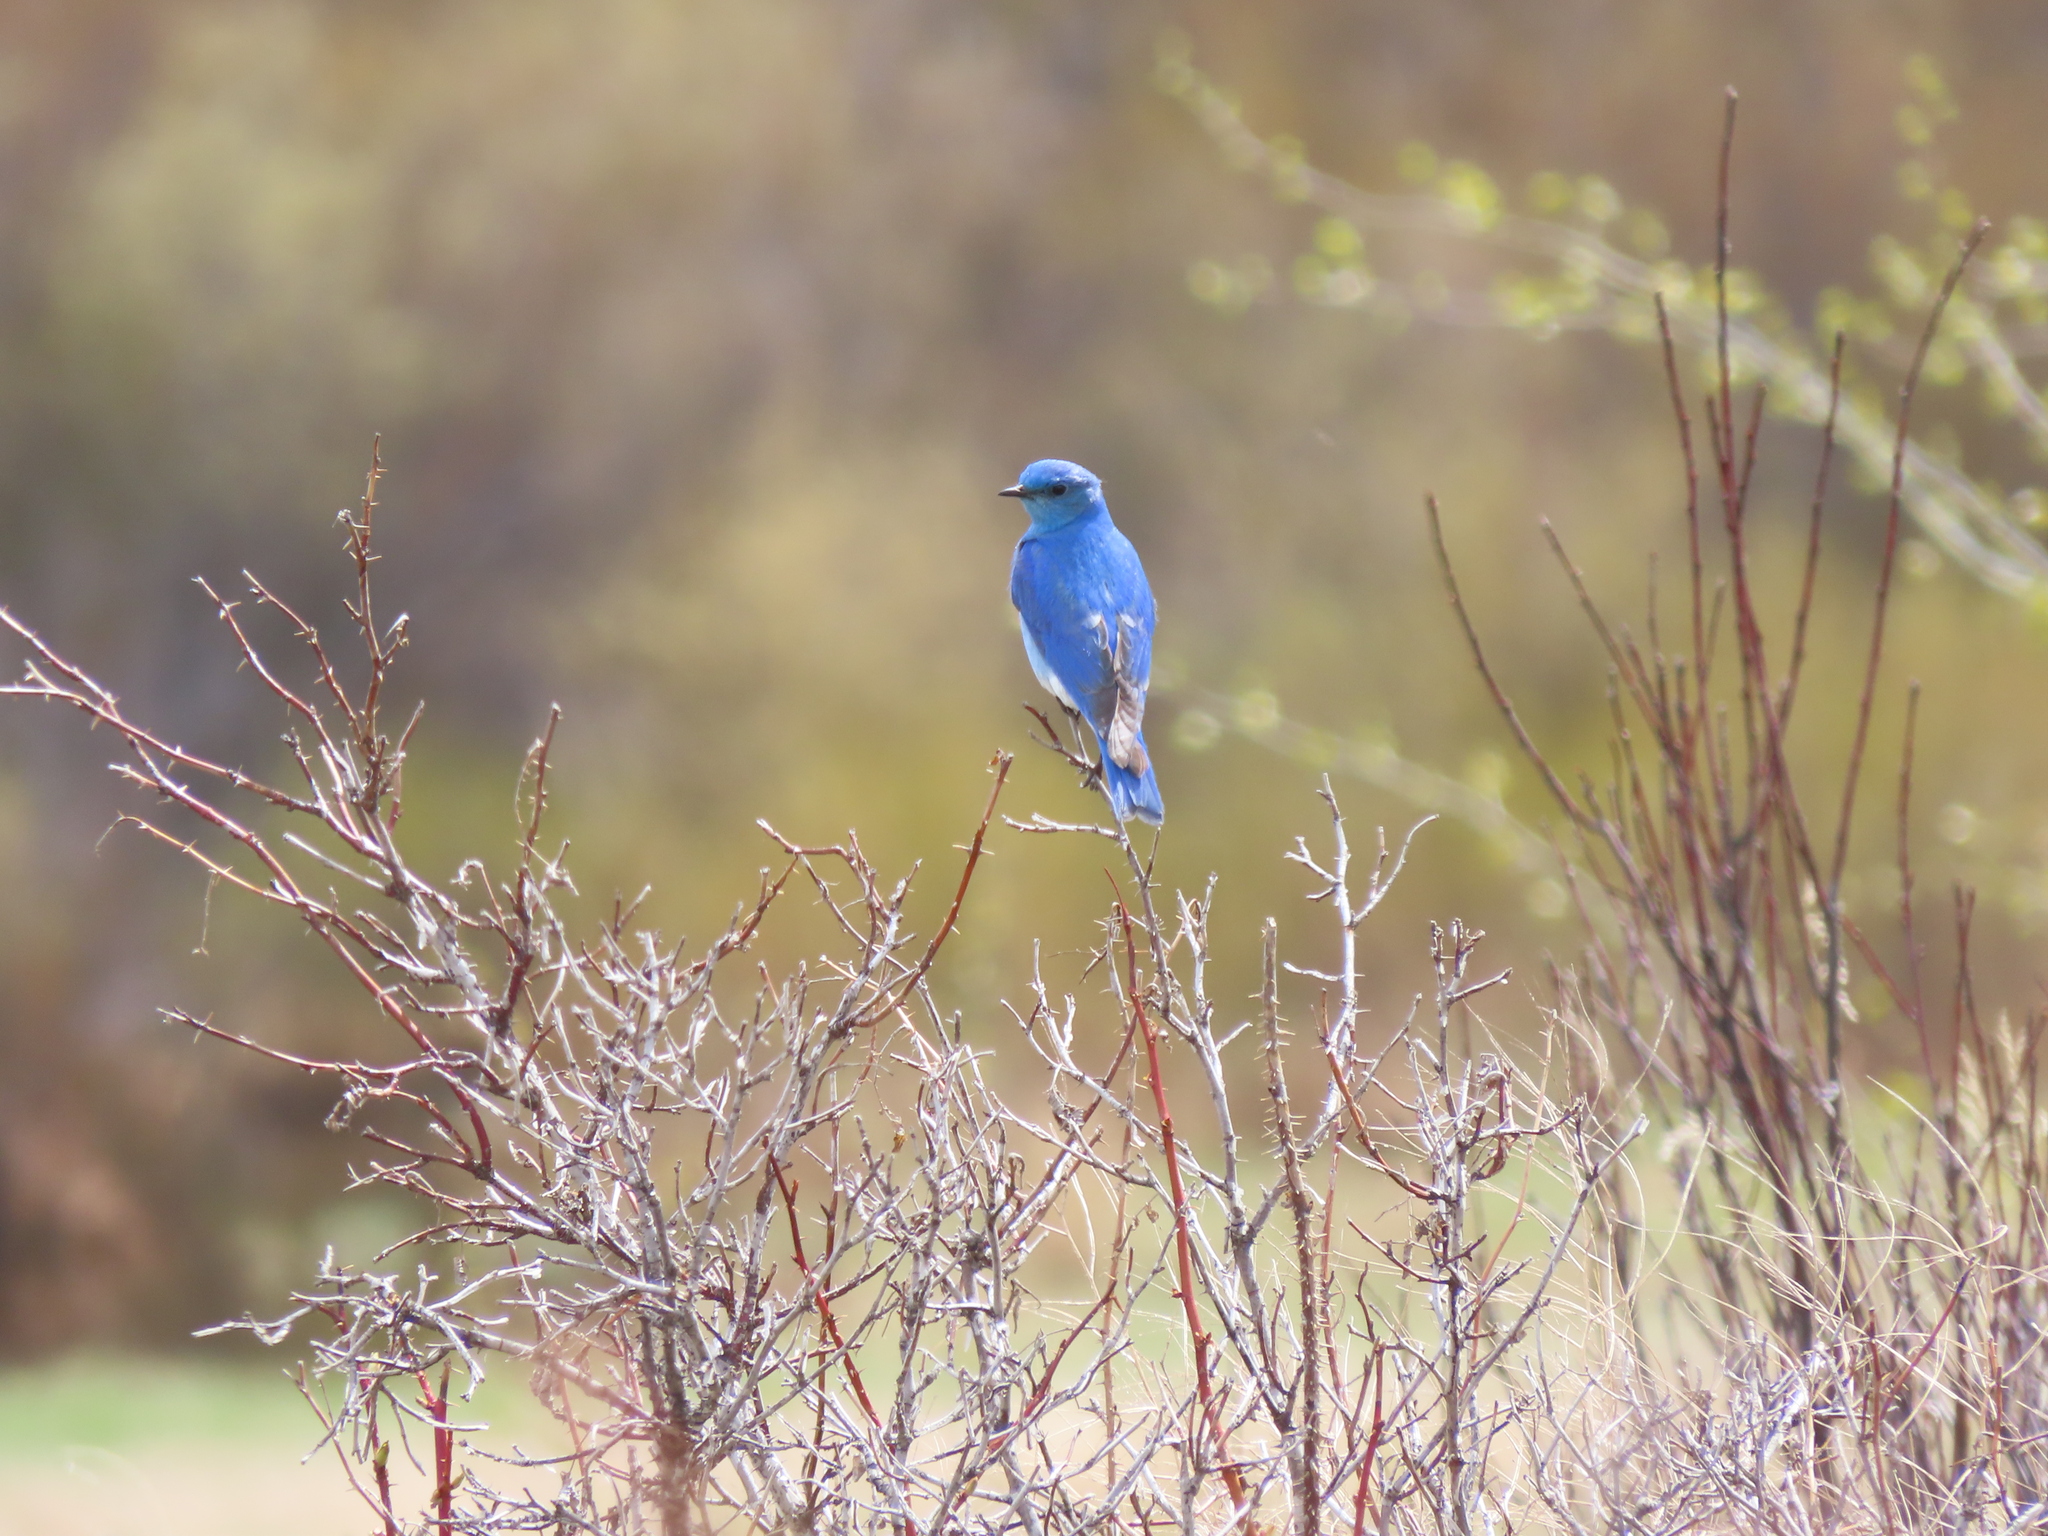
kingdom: Animalia
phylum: Chordata
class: Aves
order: Passeriformes
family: Turdidae
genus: Sialia
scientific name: Sialia currucoides
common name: Mountain bluebird
